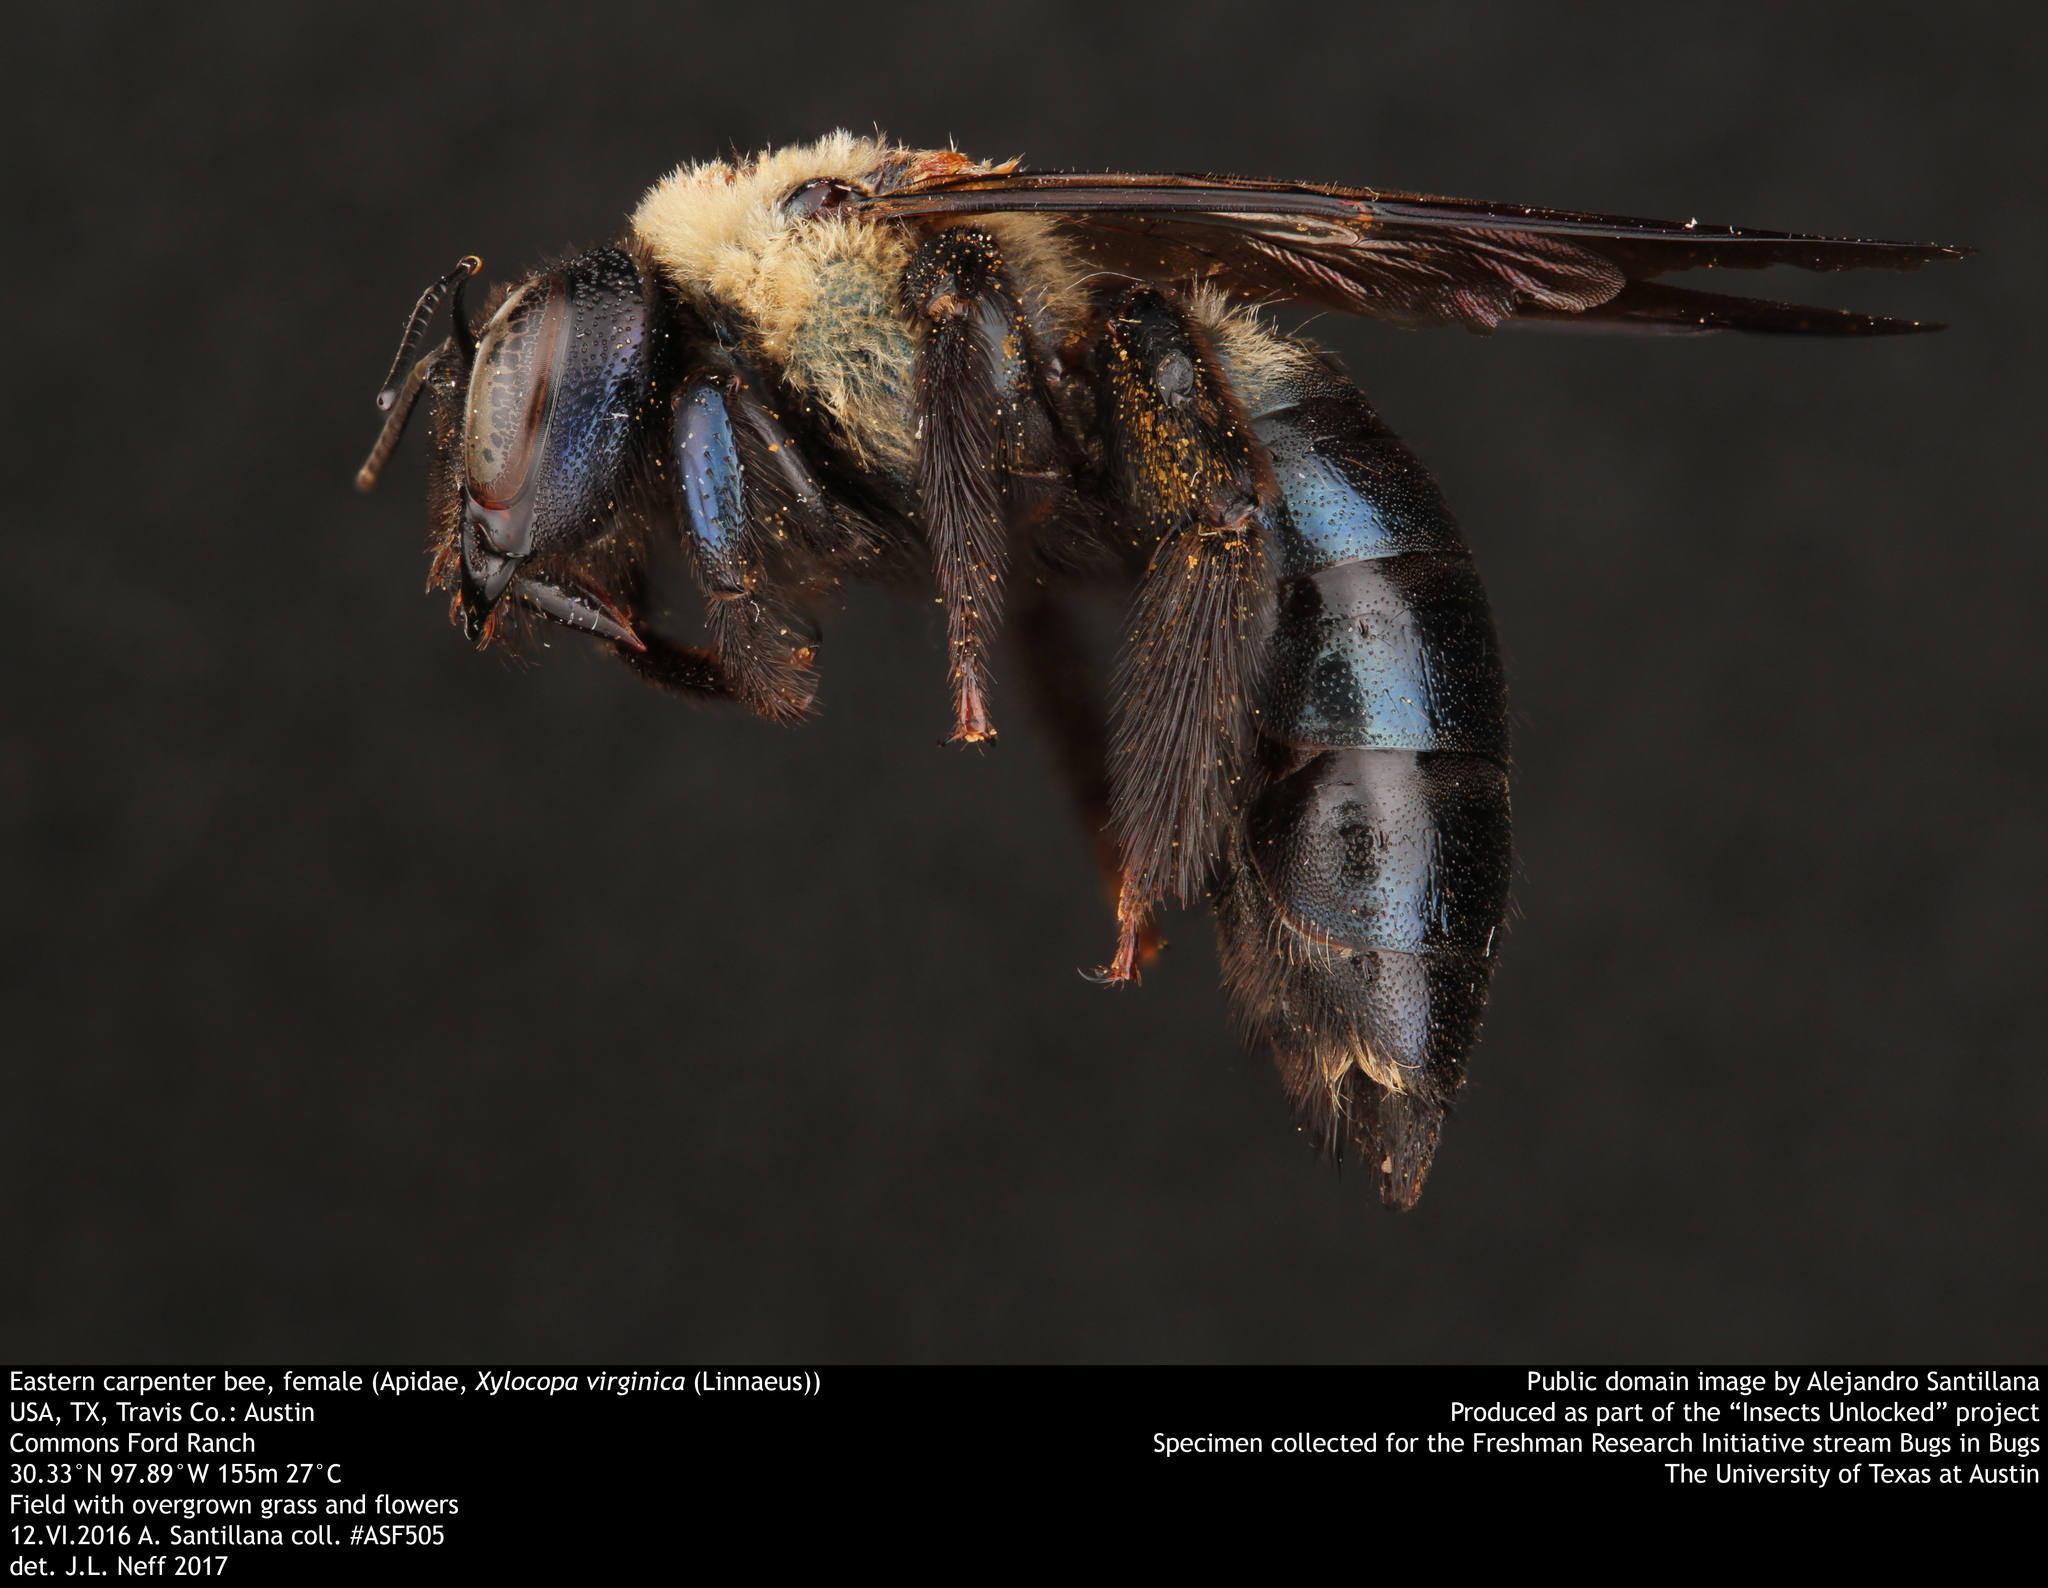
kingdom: Animalia
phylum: Arthropoda
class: Insecta
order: Hymenoptera
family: Apidae
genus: Xylocopa
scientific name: Xylocopa virginica
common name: Carpenter bee
